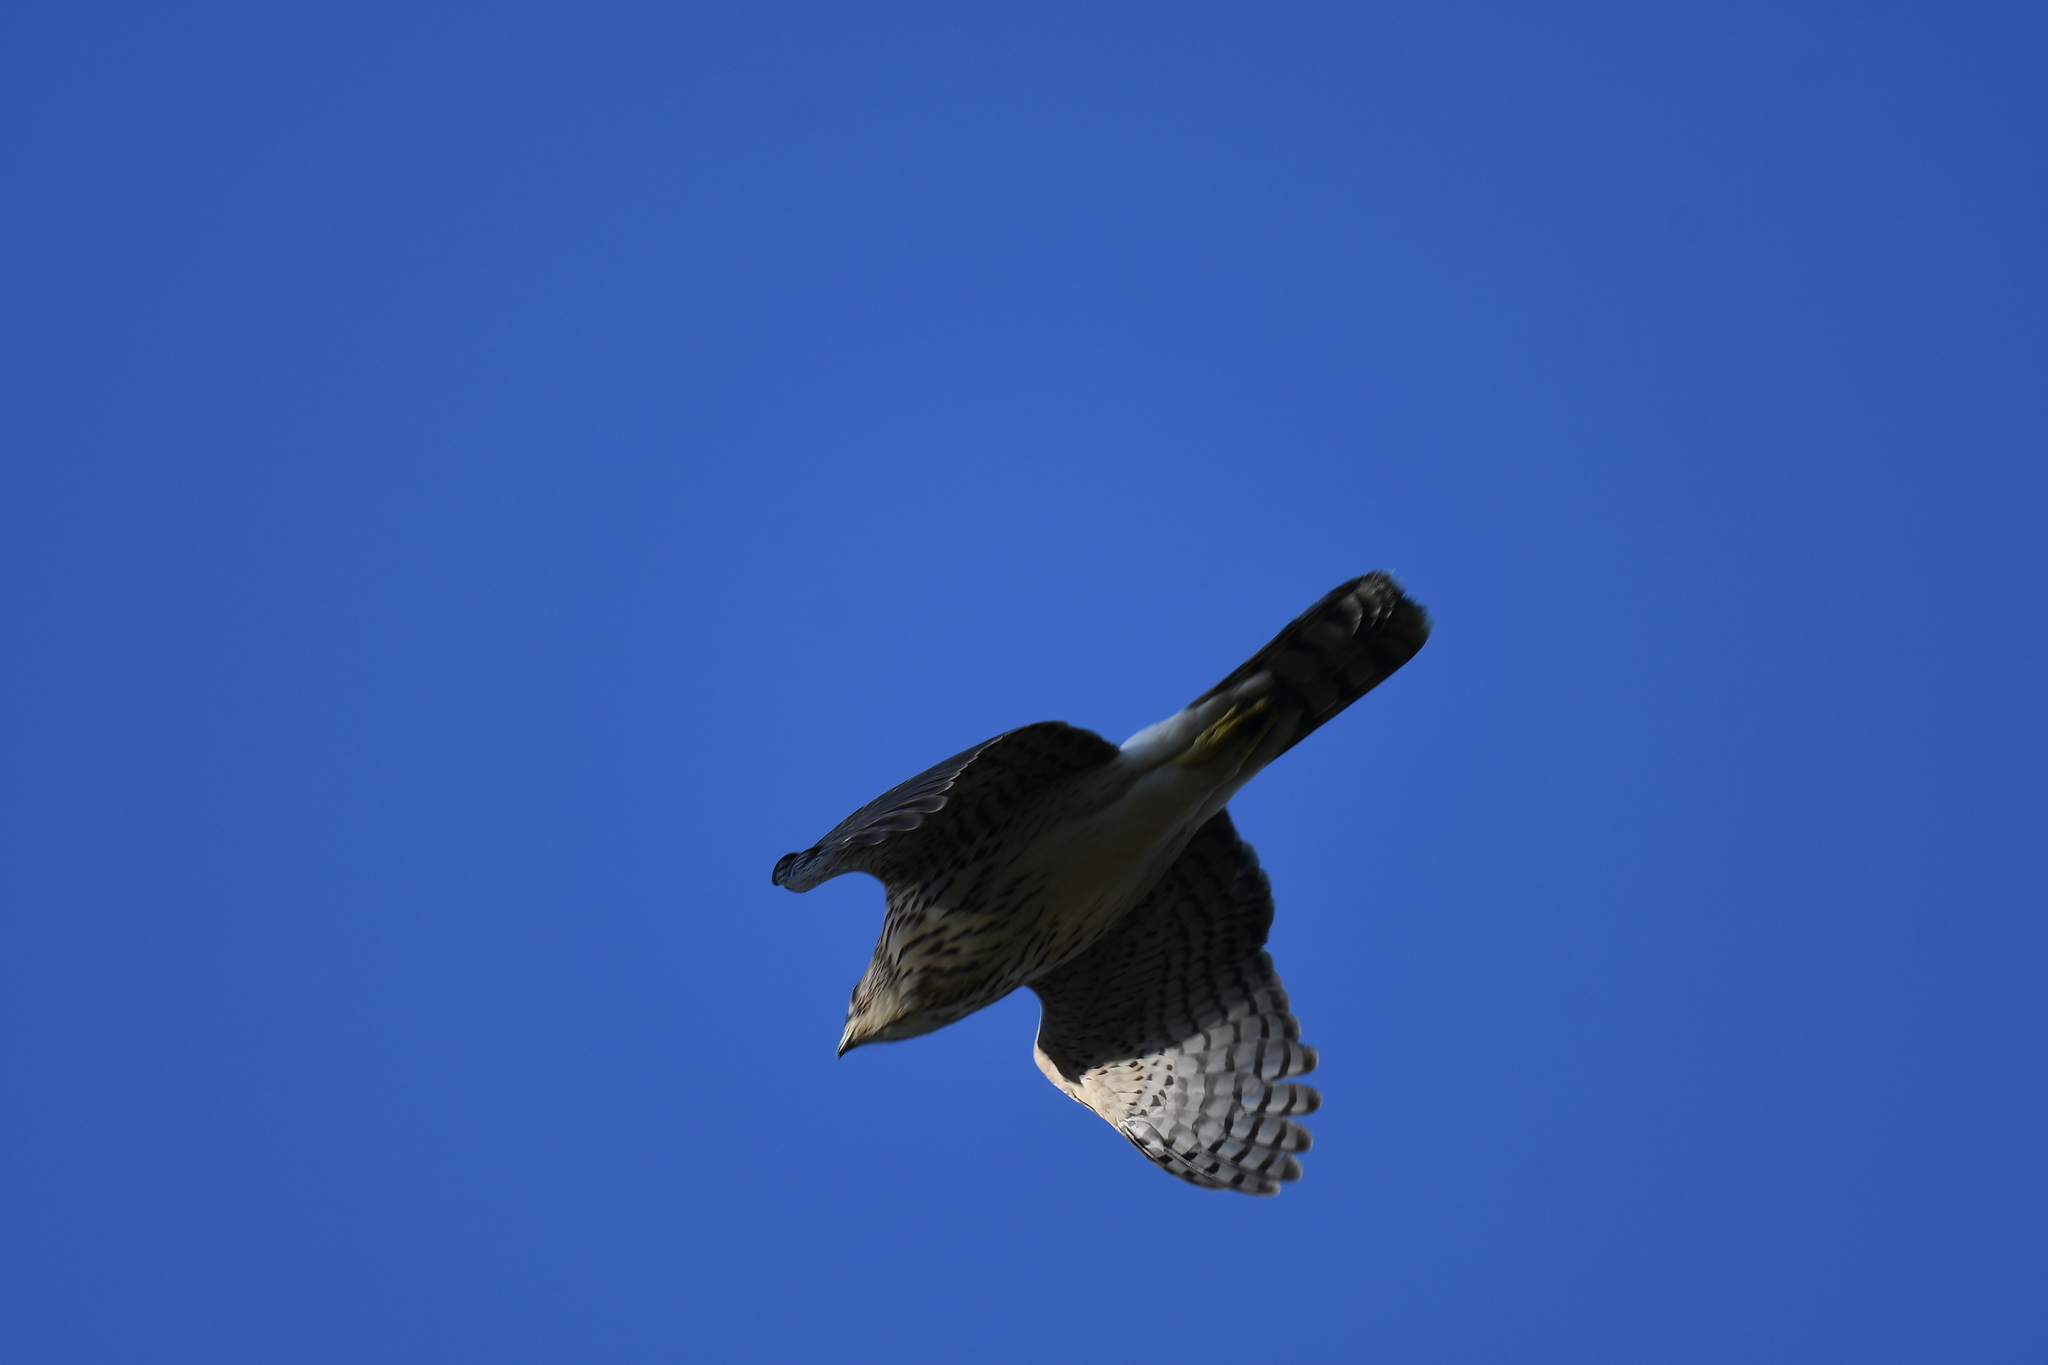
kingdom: Animalia
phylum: Chordata
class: Aves
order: Accipitriformes
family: Accipitridae
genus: Accipiter
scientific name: Accipiter cooperii
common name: Cooper's hawk
